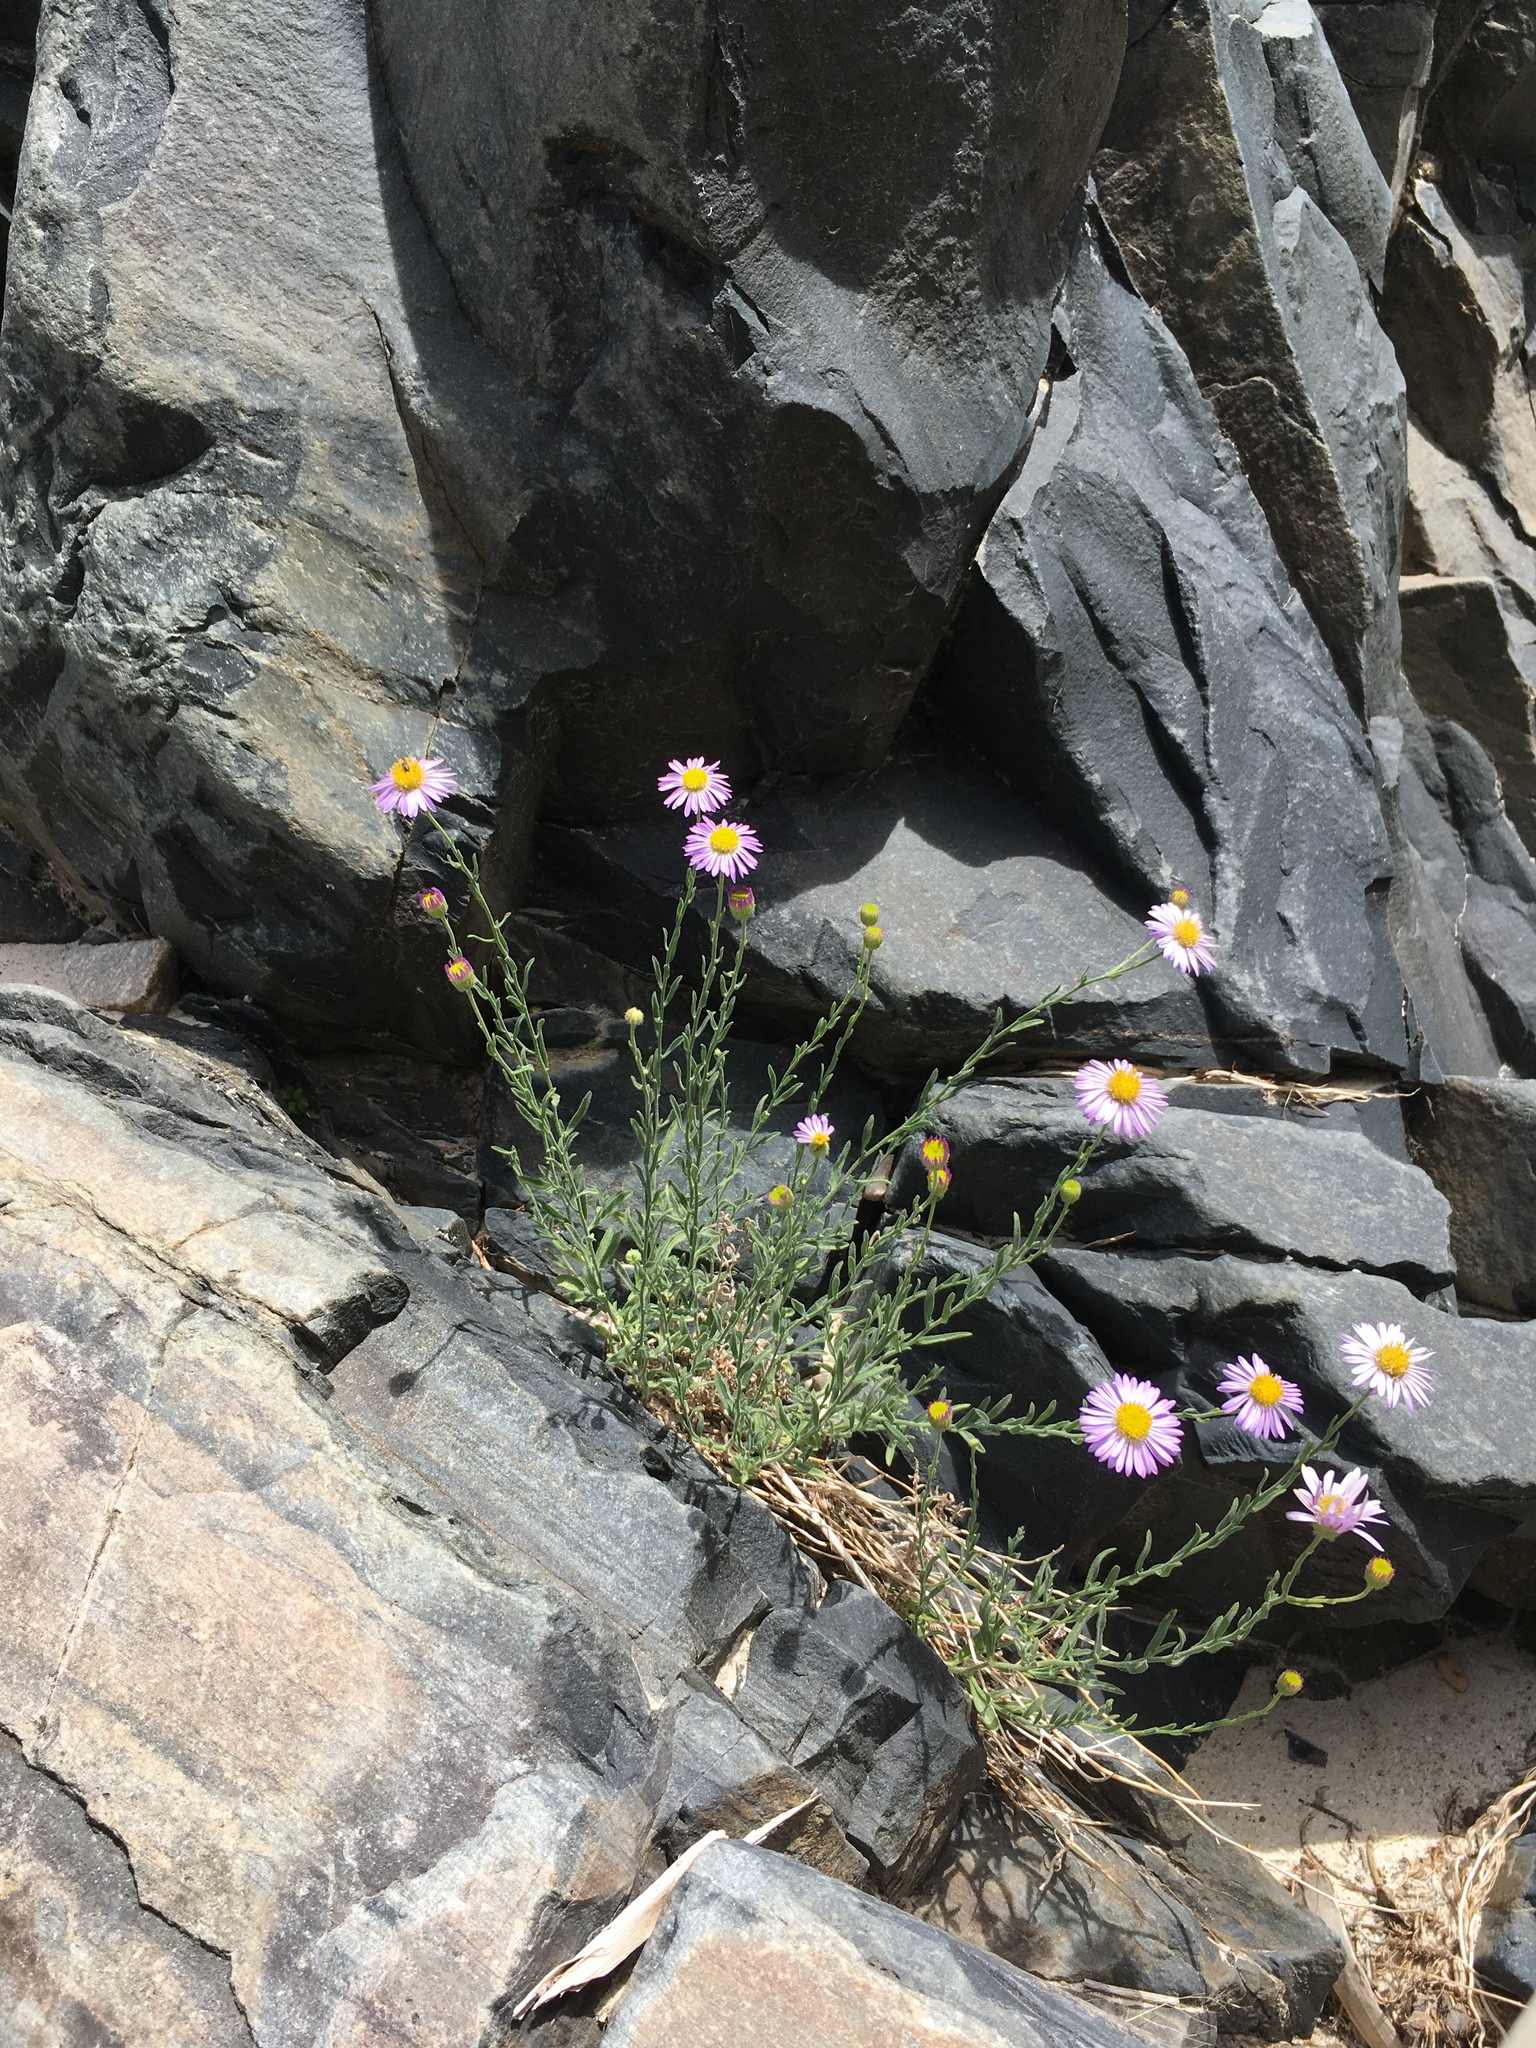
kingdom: Plantae
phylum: Tracheophyta
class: Magnoliopsida
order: Asterales
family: Asteraceae
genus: Erigeron
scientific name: Erigeron breweri
